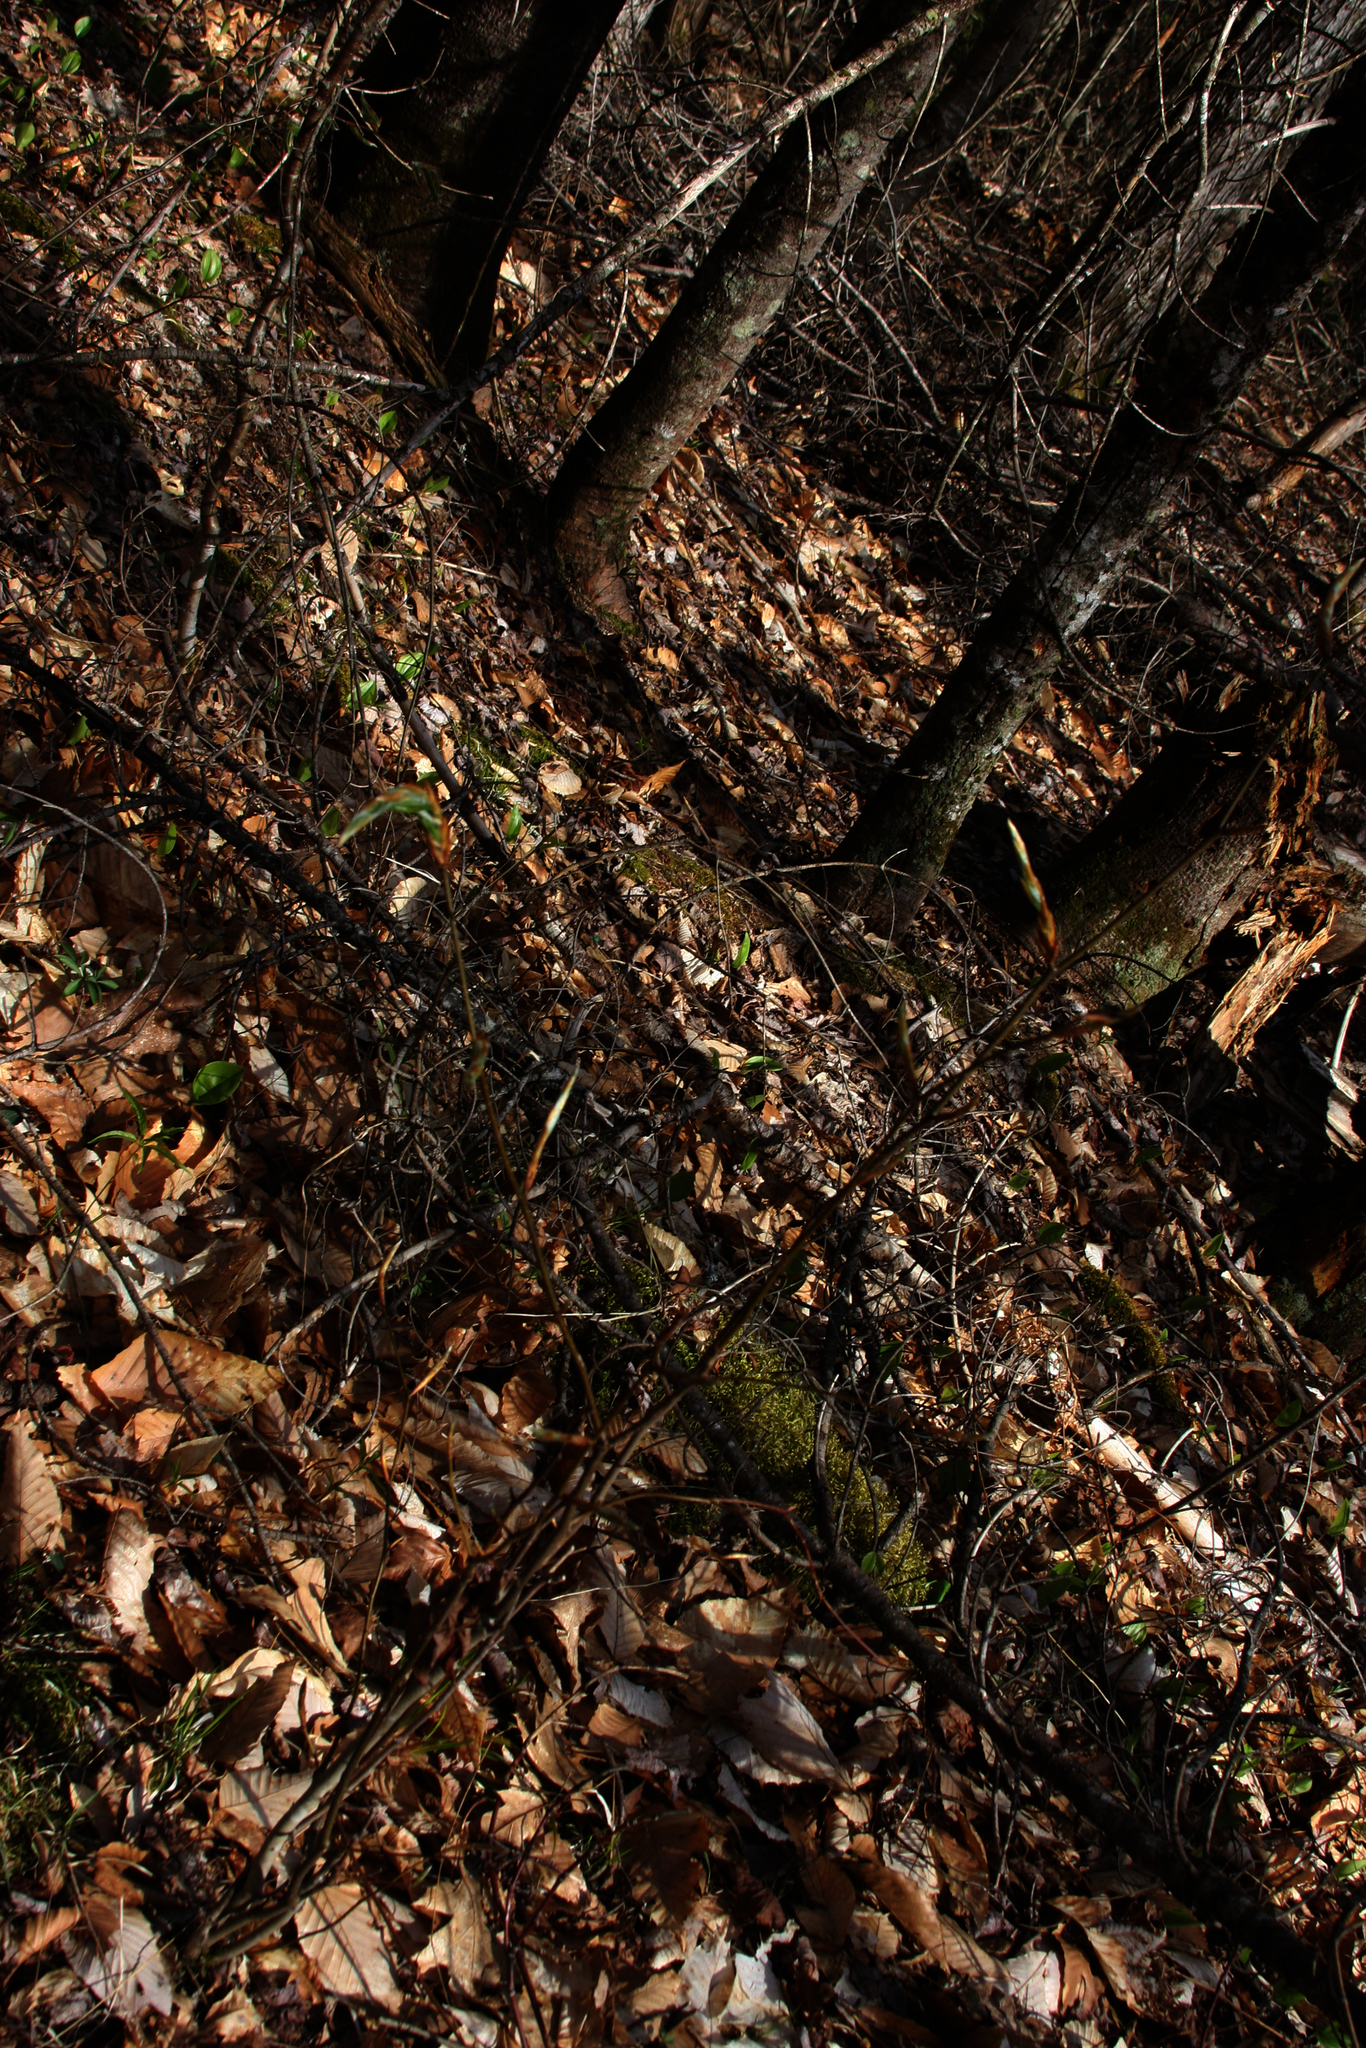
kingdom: Plantae
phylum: Tracheophyta
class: Magnoliopsida
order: Fagales
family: Fagaceae
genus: Fagus
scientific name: Fagus grandifolia
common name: American beech
